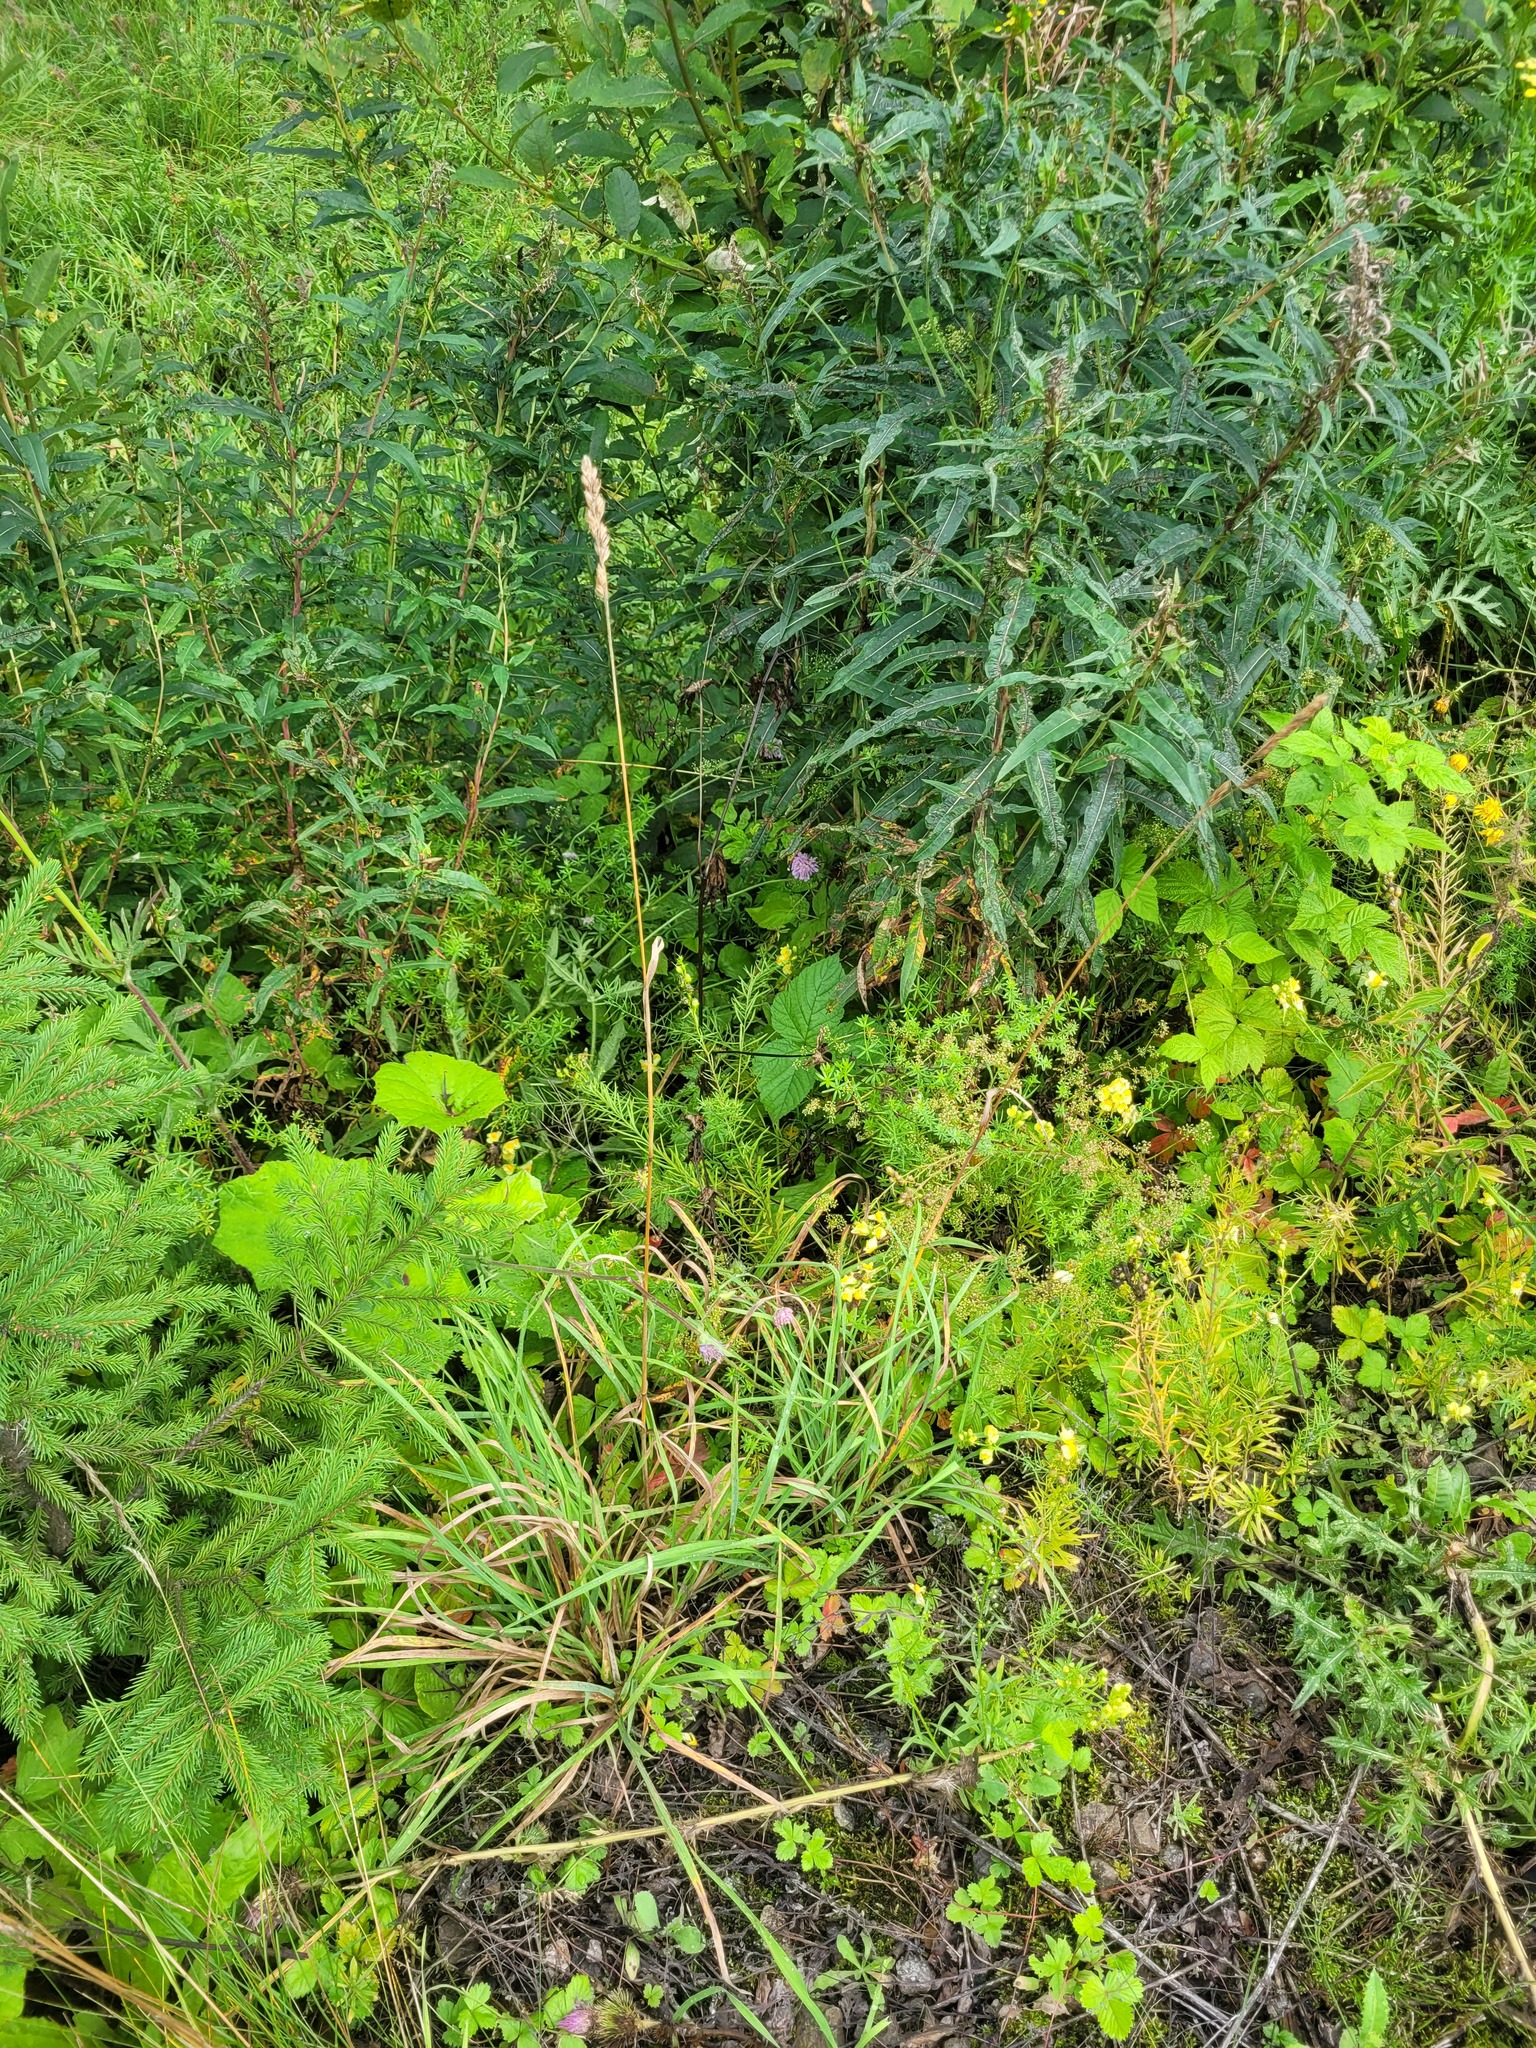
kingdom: Plantae
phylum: Tracheophyta
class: Liliopsida
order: Poales
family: Poaceae
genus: Dactylis
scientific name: Dactylis glomerata
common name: Orchardgrass
